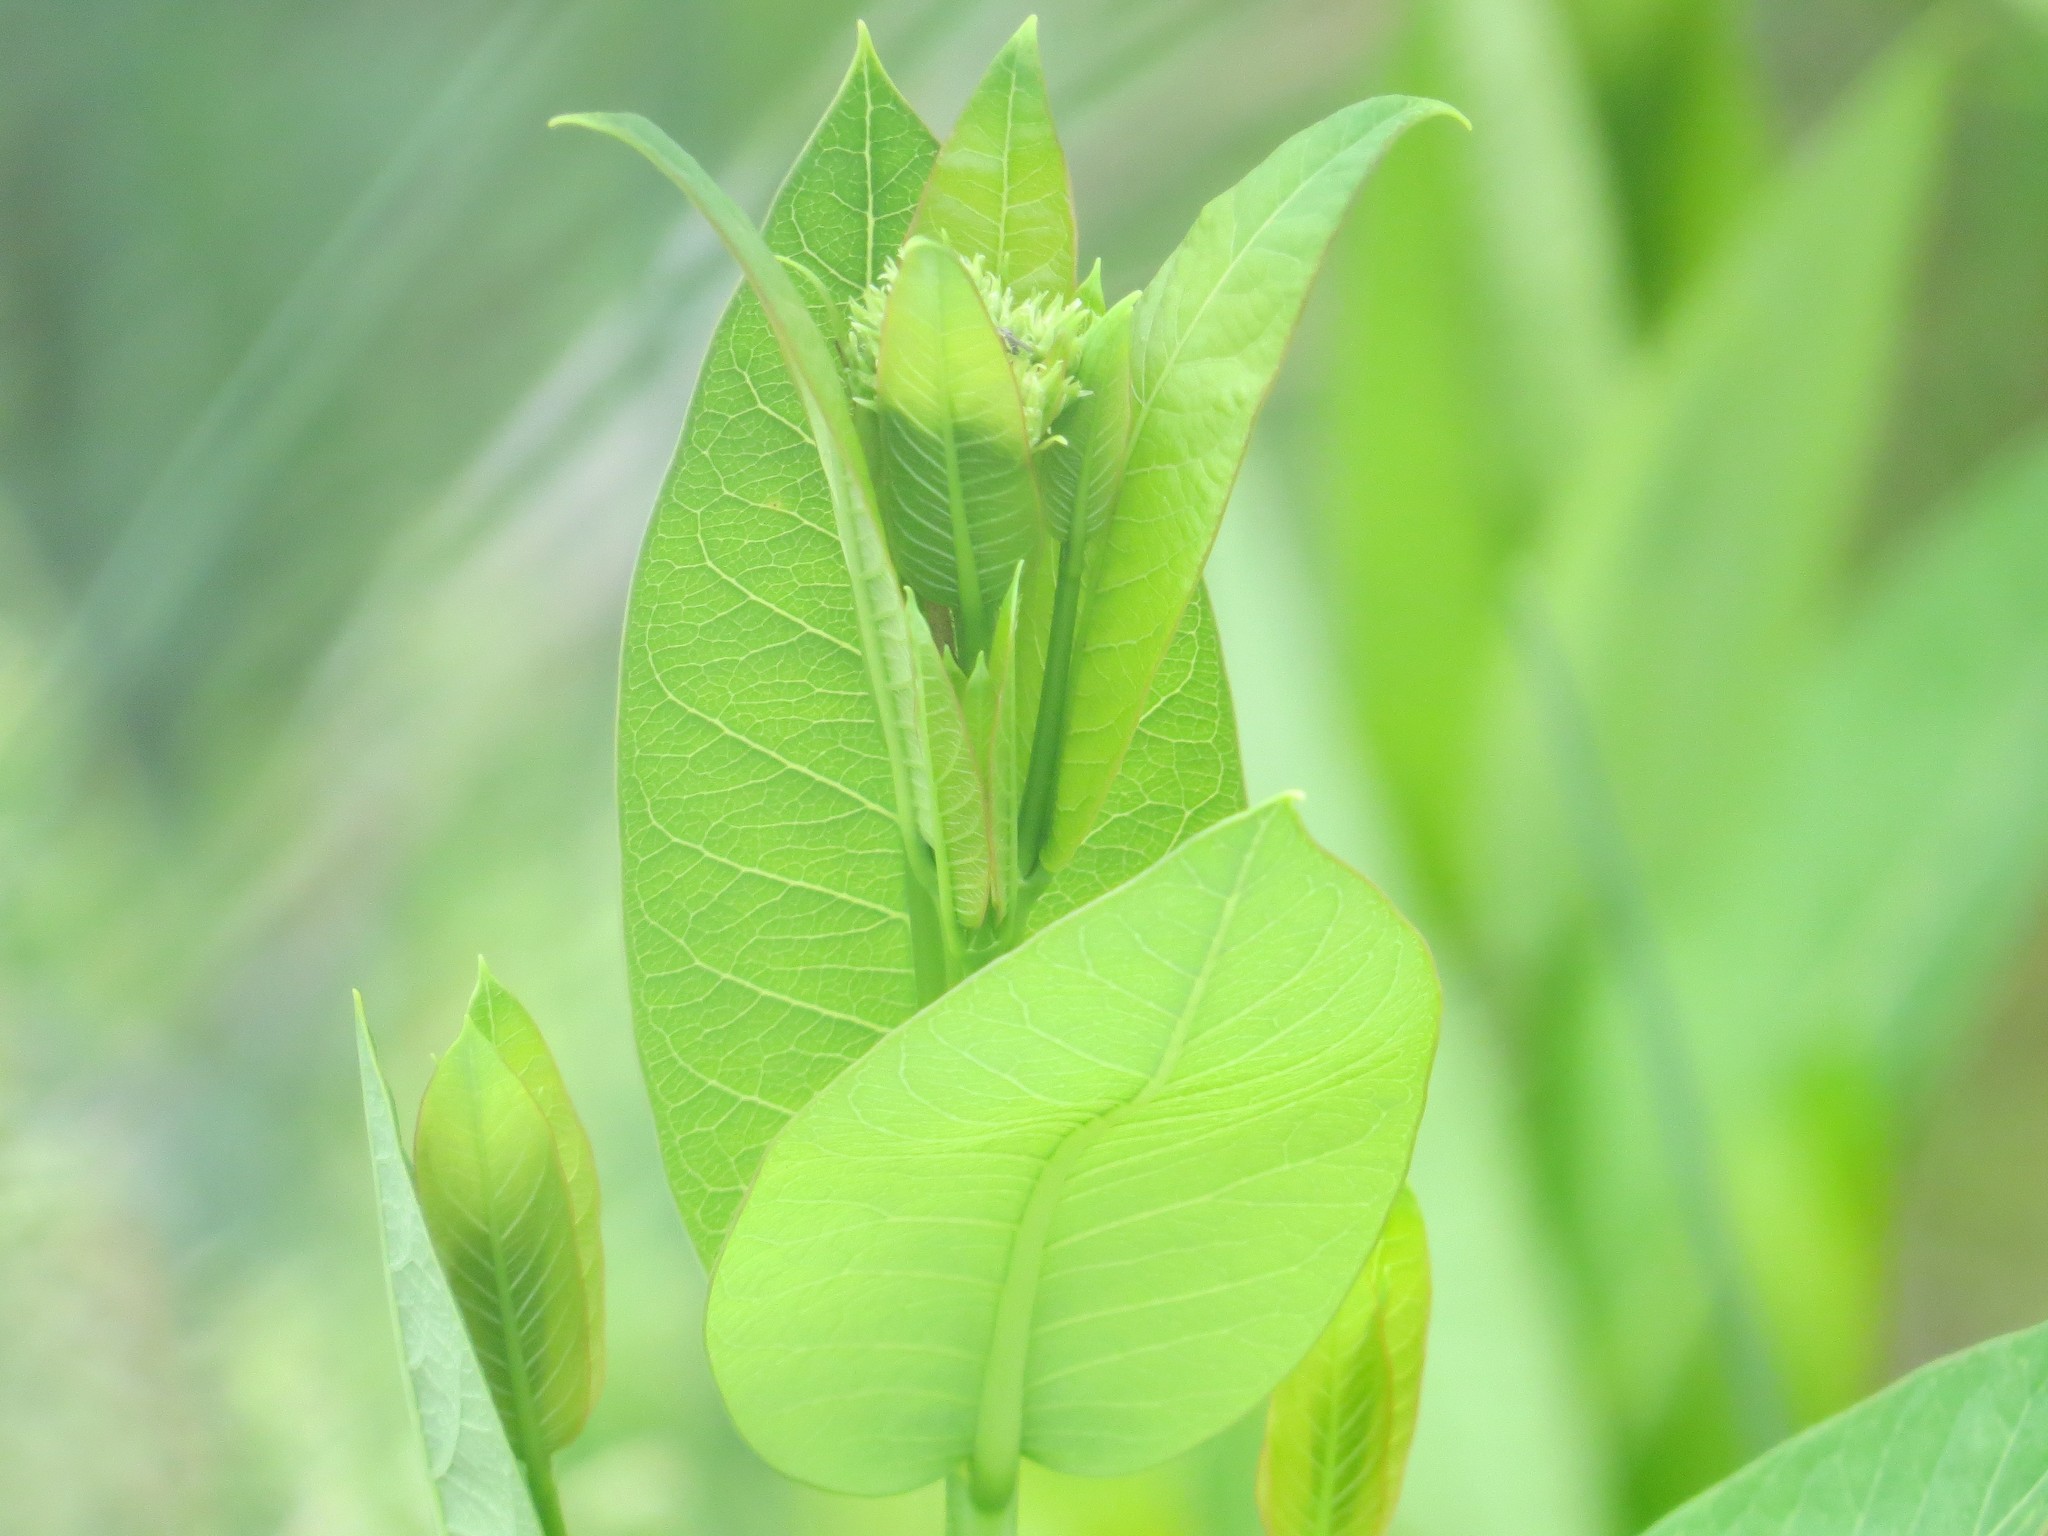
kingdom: Plantae
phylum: Tracheophyta
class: Magnoliopsida
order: Gentianales
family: Apocynaceae
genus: Asclepias
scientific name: Asclepias syriaca
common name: Common milkweed
